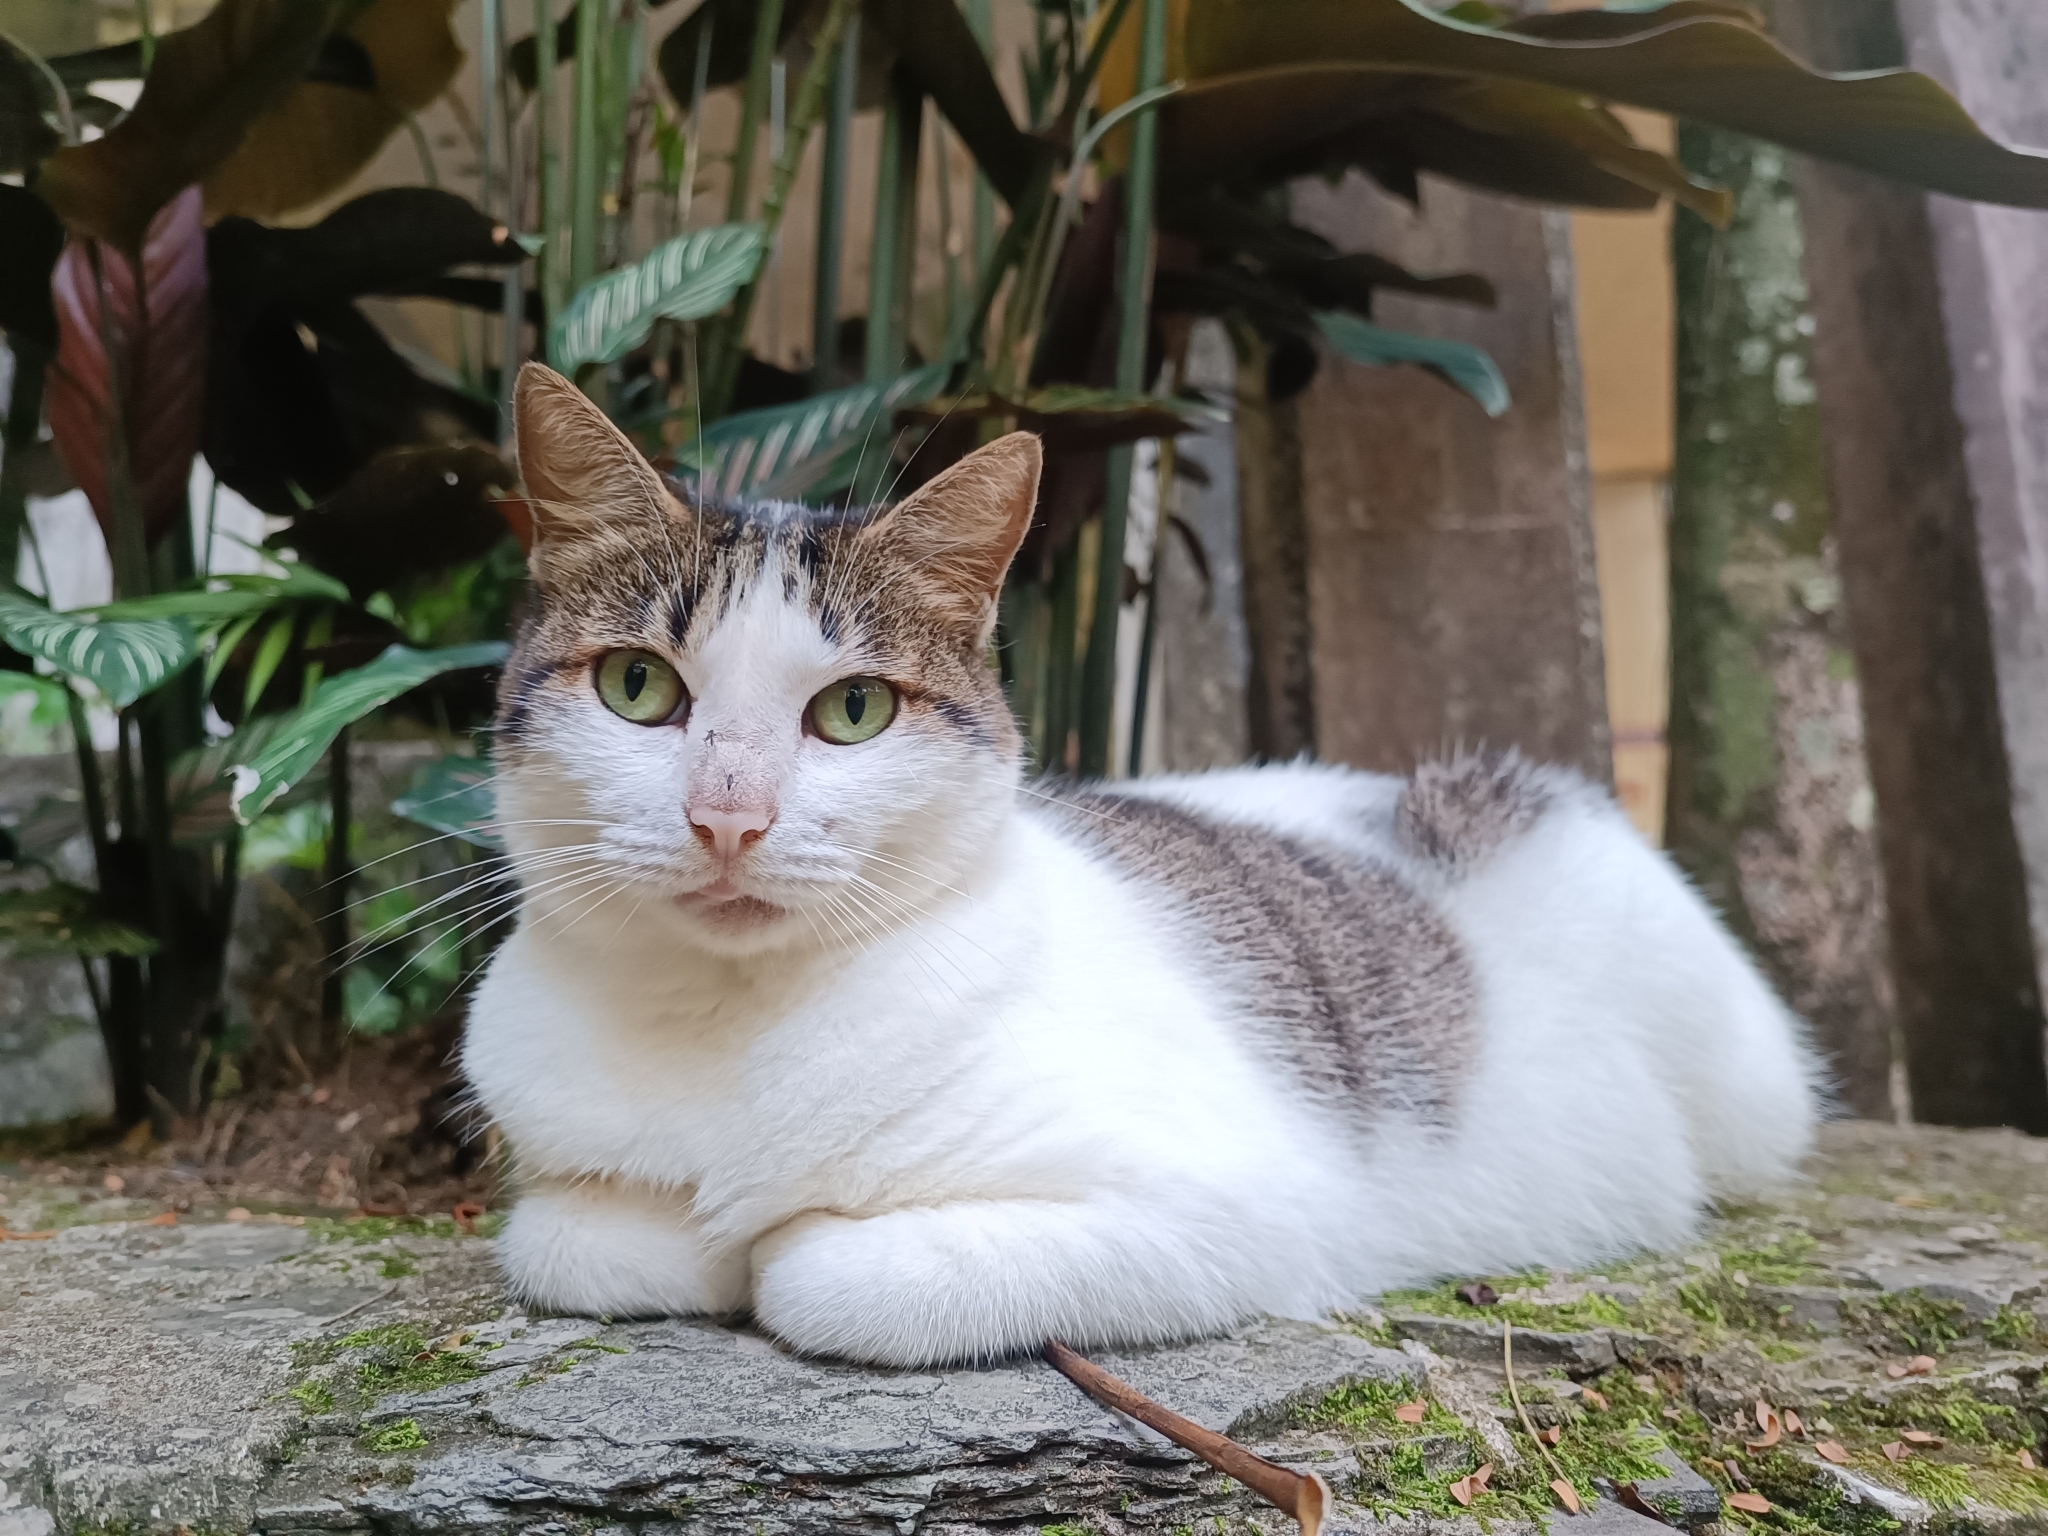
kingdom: Animalia
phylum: Chordata
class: Mammalia
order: Carnivora
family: Felidae
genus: Felis
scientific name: Felis catus
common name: Domestic cat
